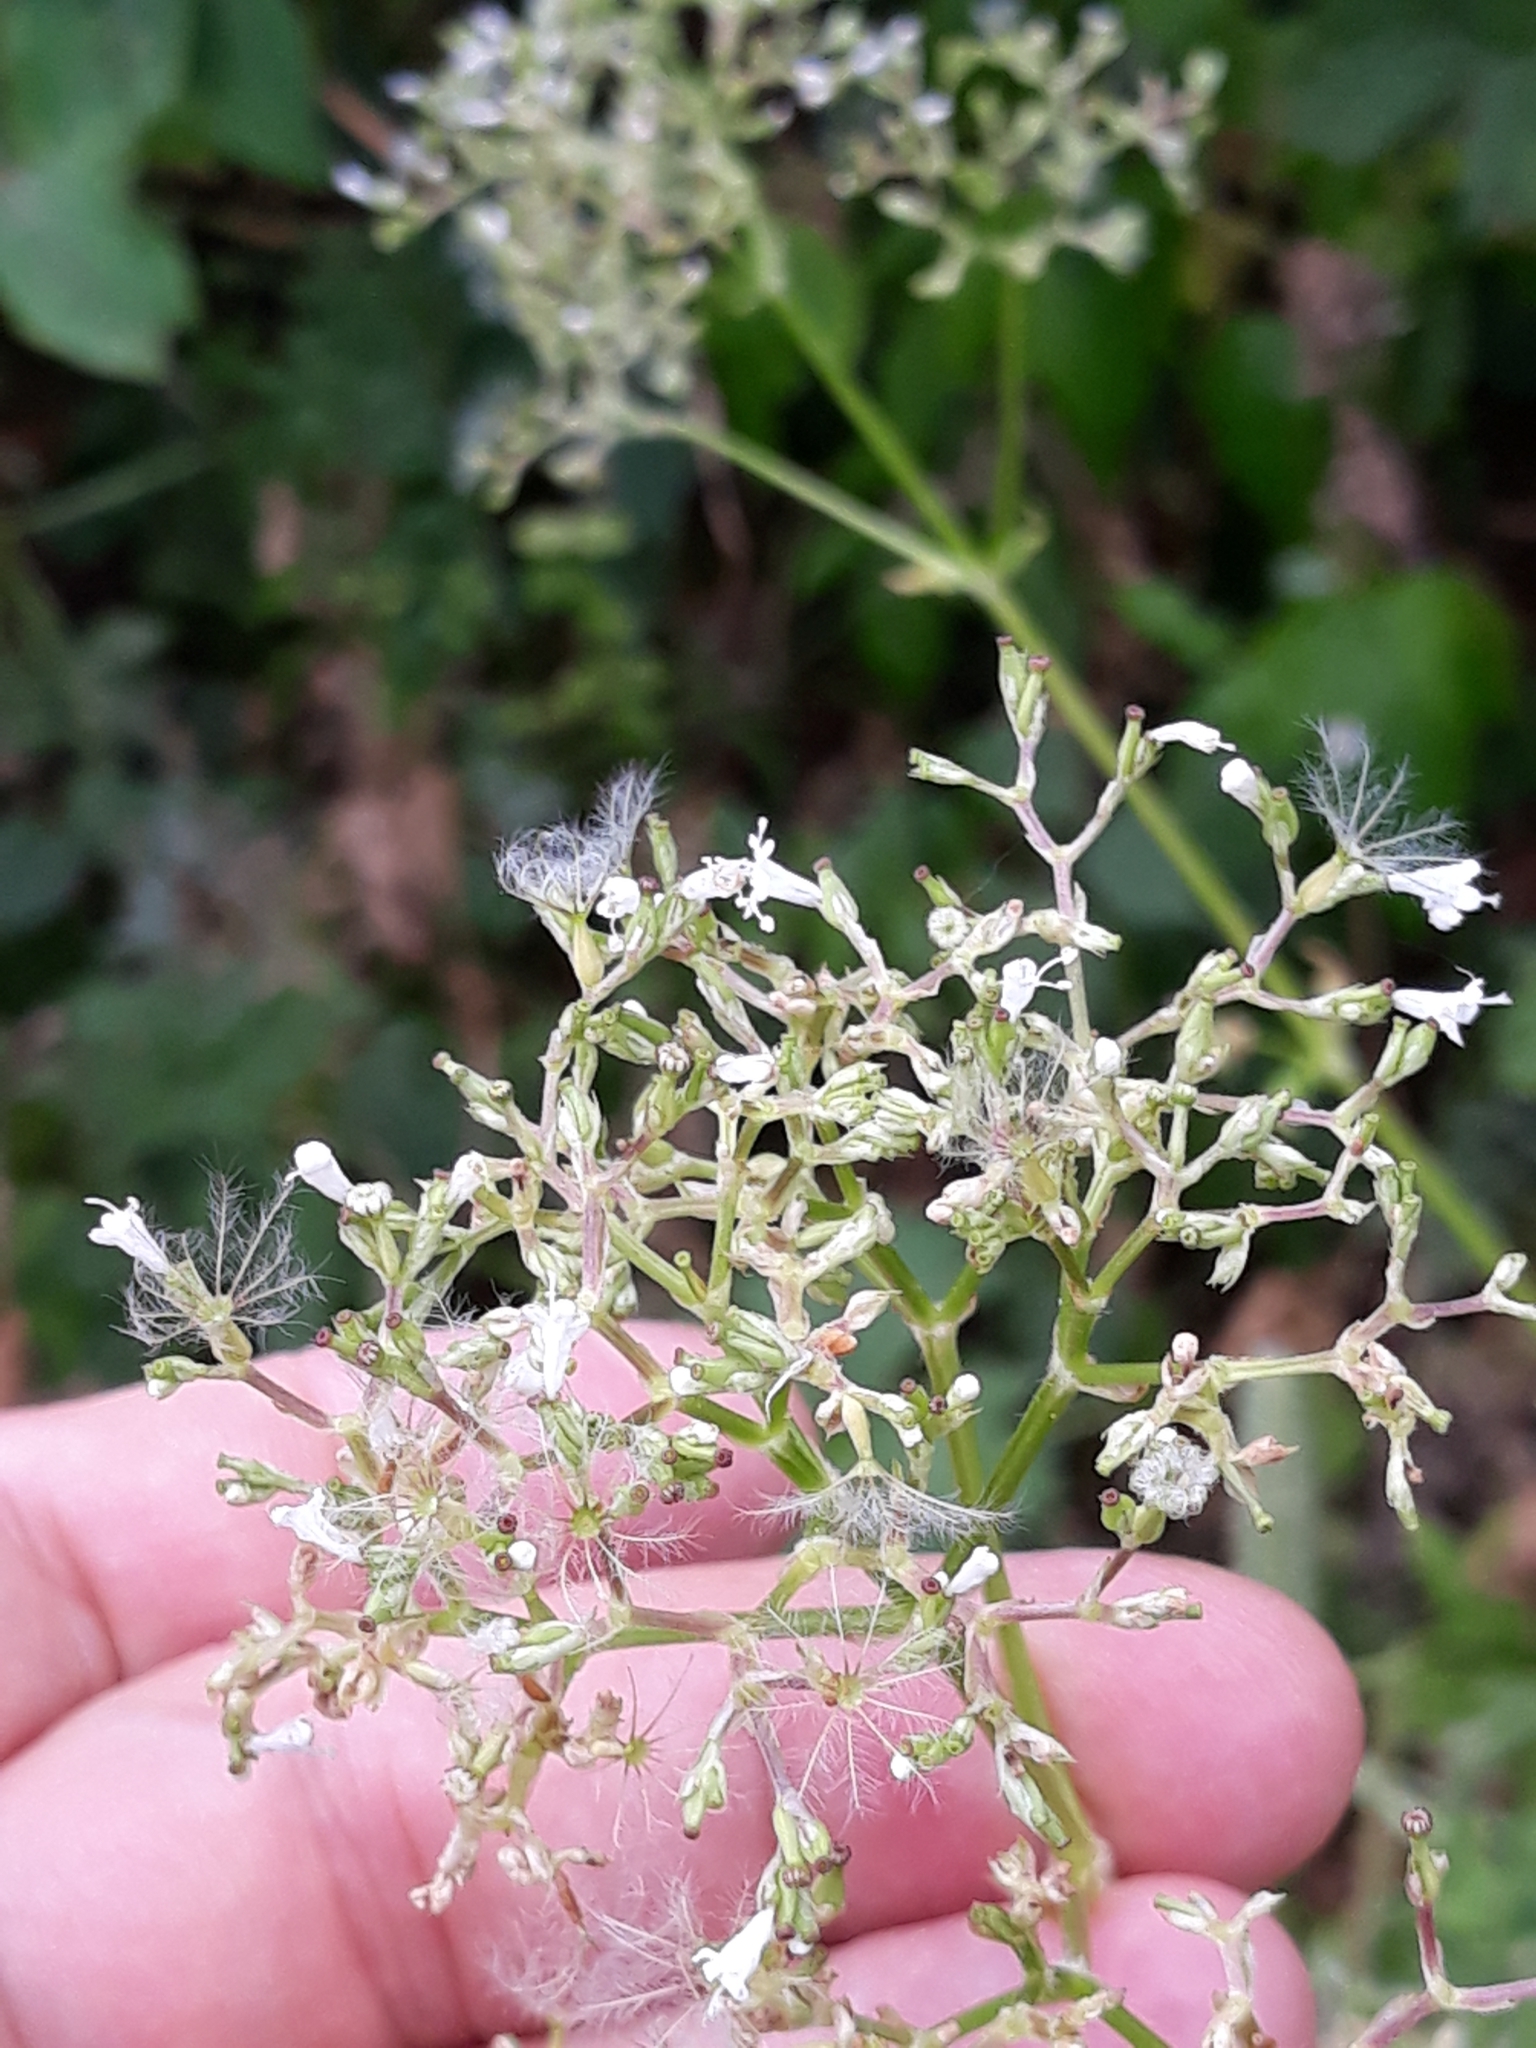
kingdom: Plantae
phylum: Tracheophyta
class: Magnoliopsida
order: Dipsacales
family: Caprifoliaceae
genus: Valeriana
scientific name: Valeriana officinalis
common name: Common valerian
